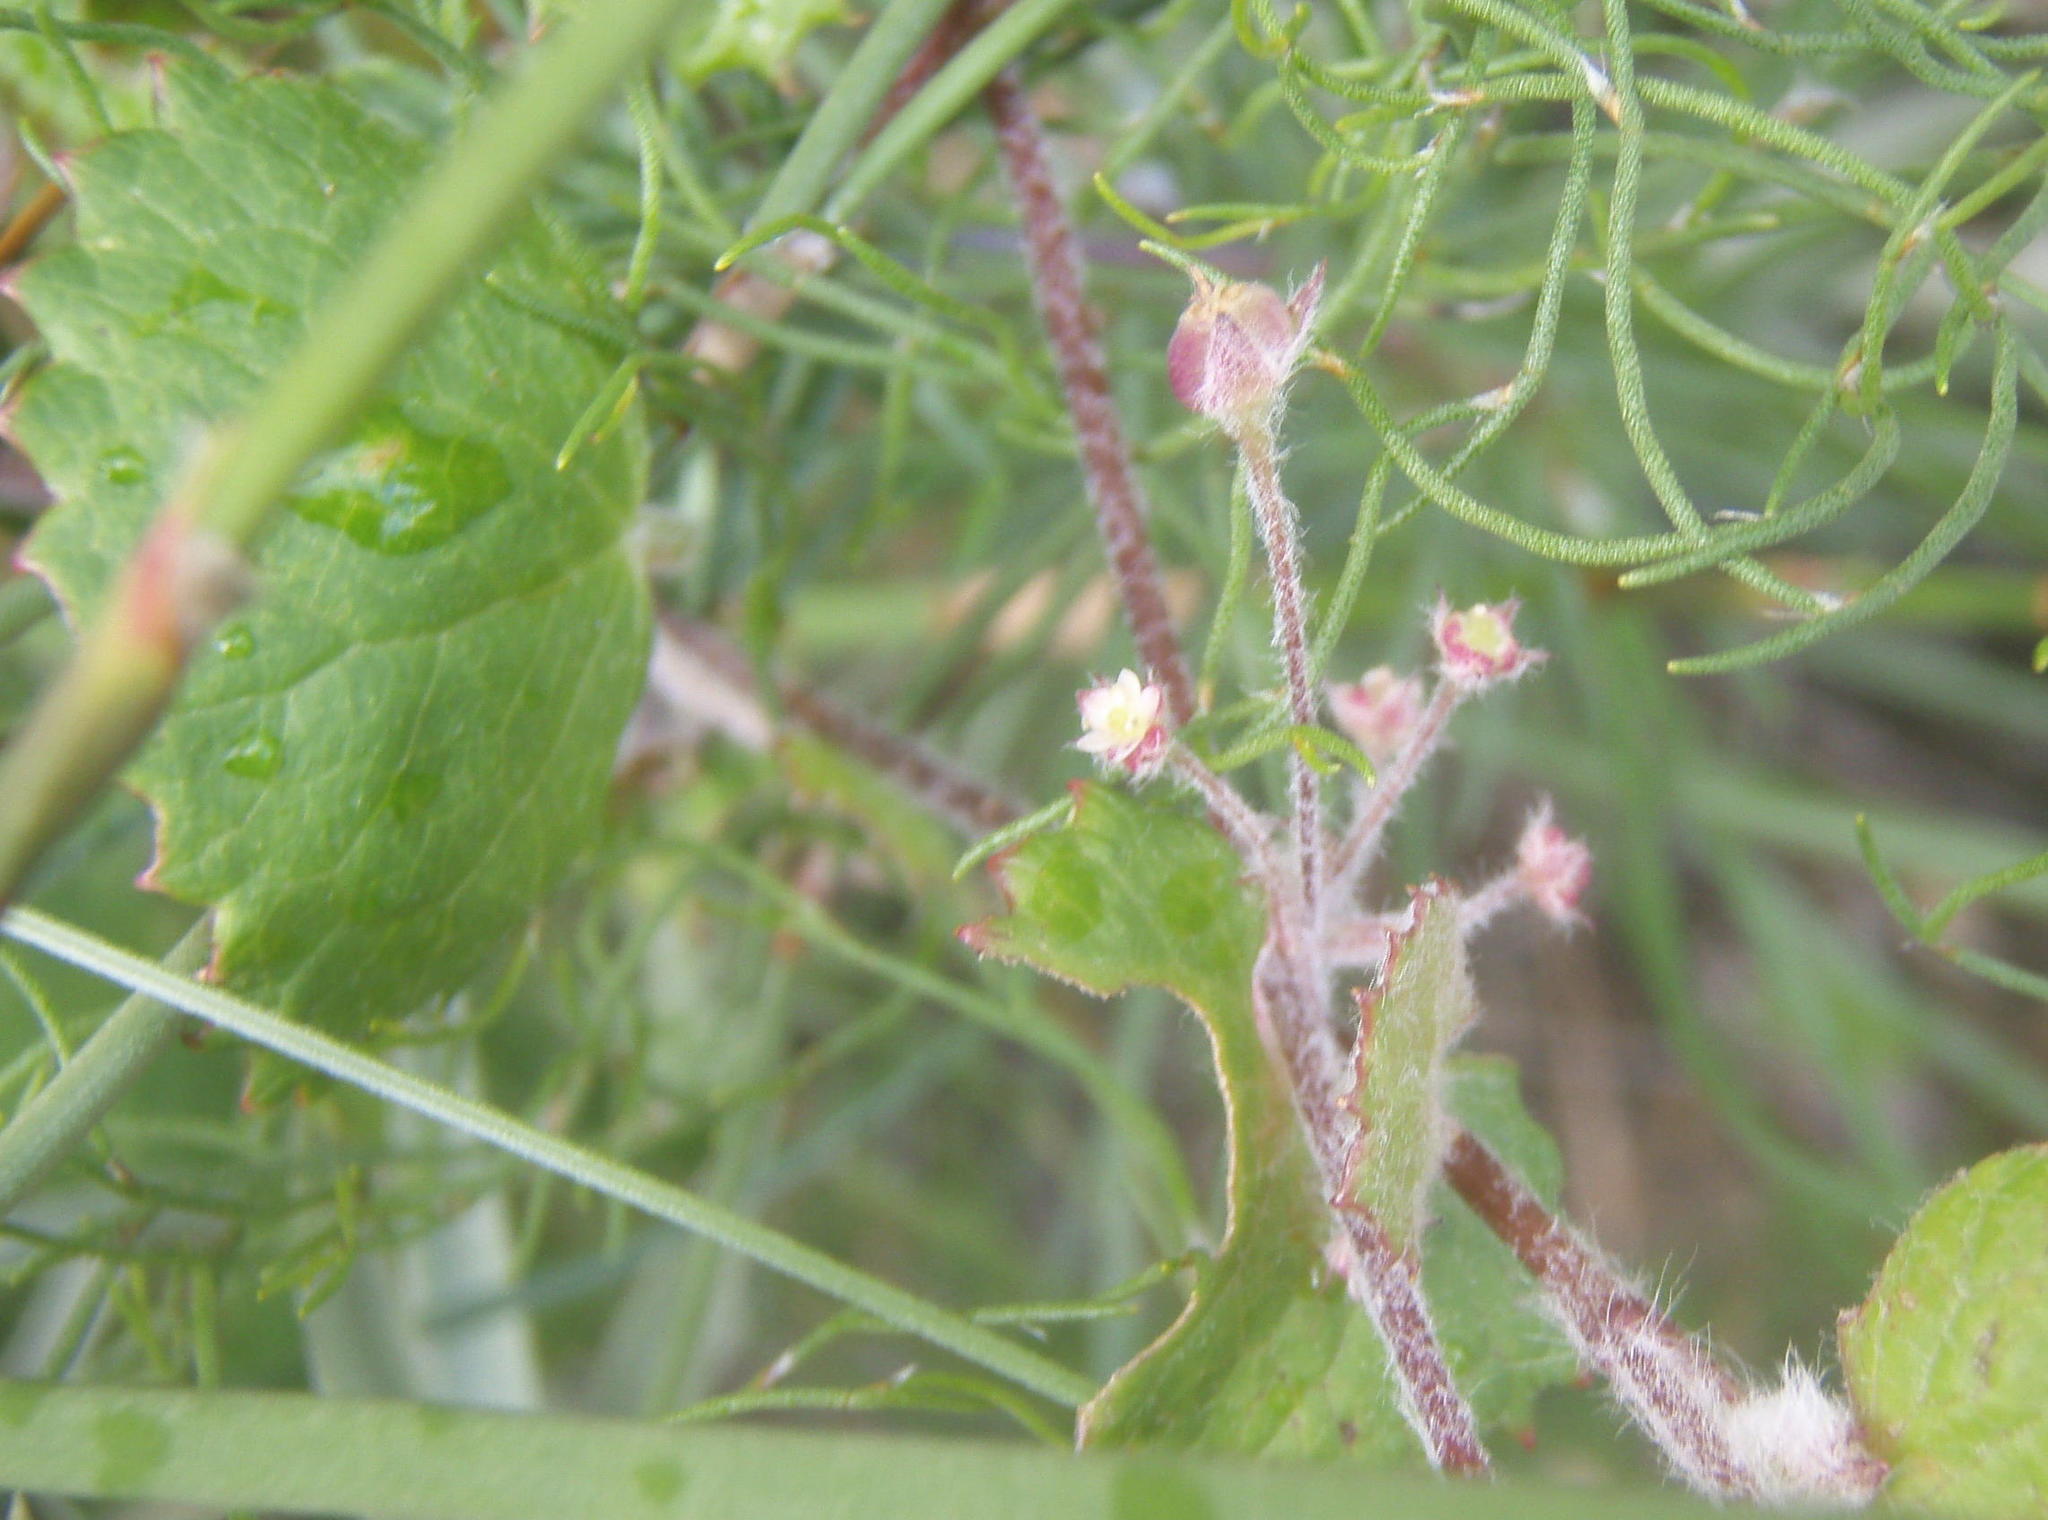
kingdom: Plantae
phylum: Tracheophyta
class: Magnoliopsida
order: Apiales
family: Apiaceae
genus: Centella
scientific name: Centella lanata
